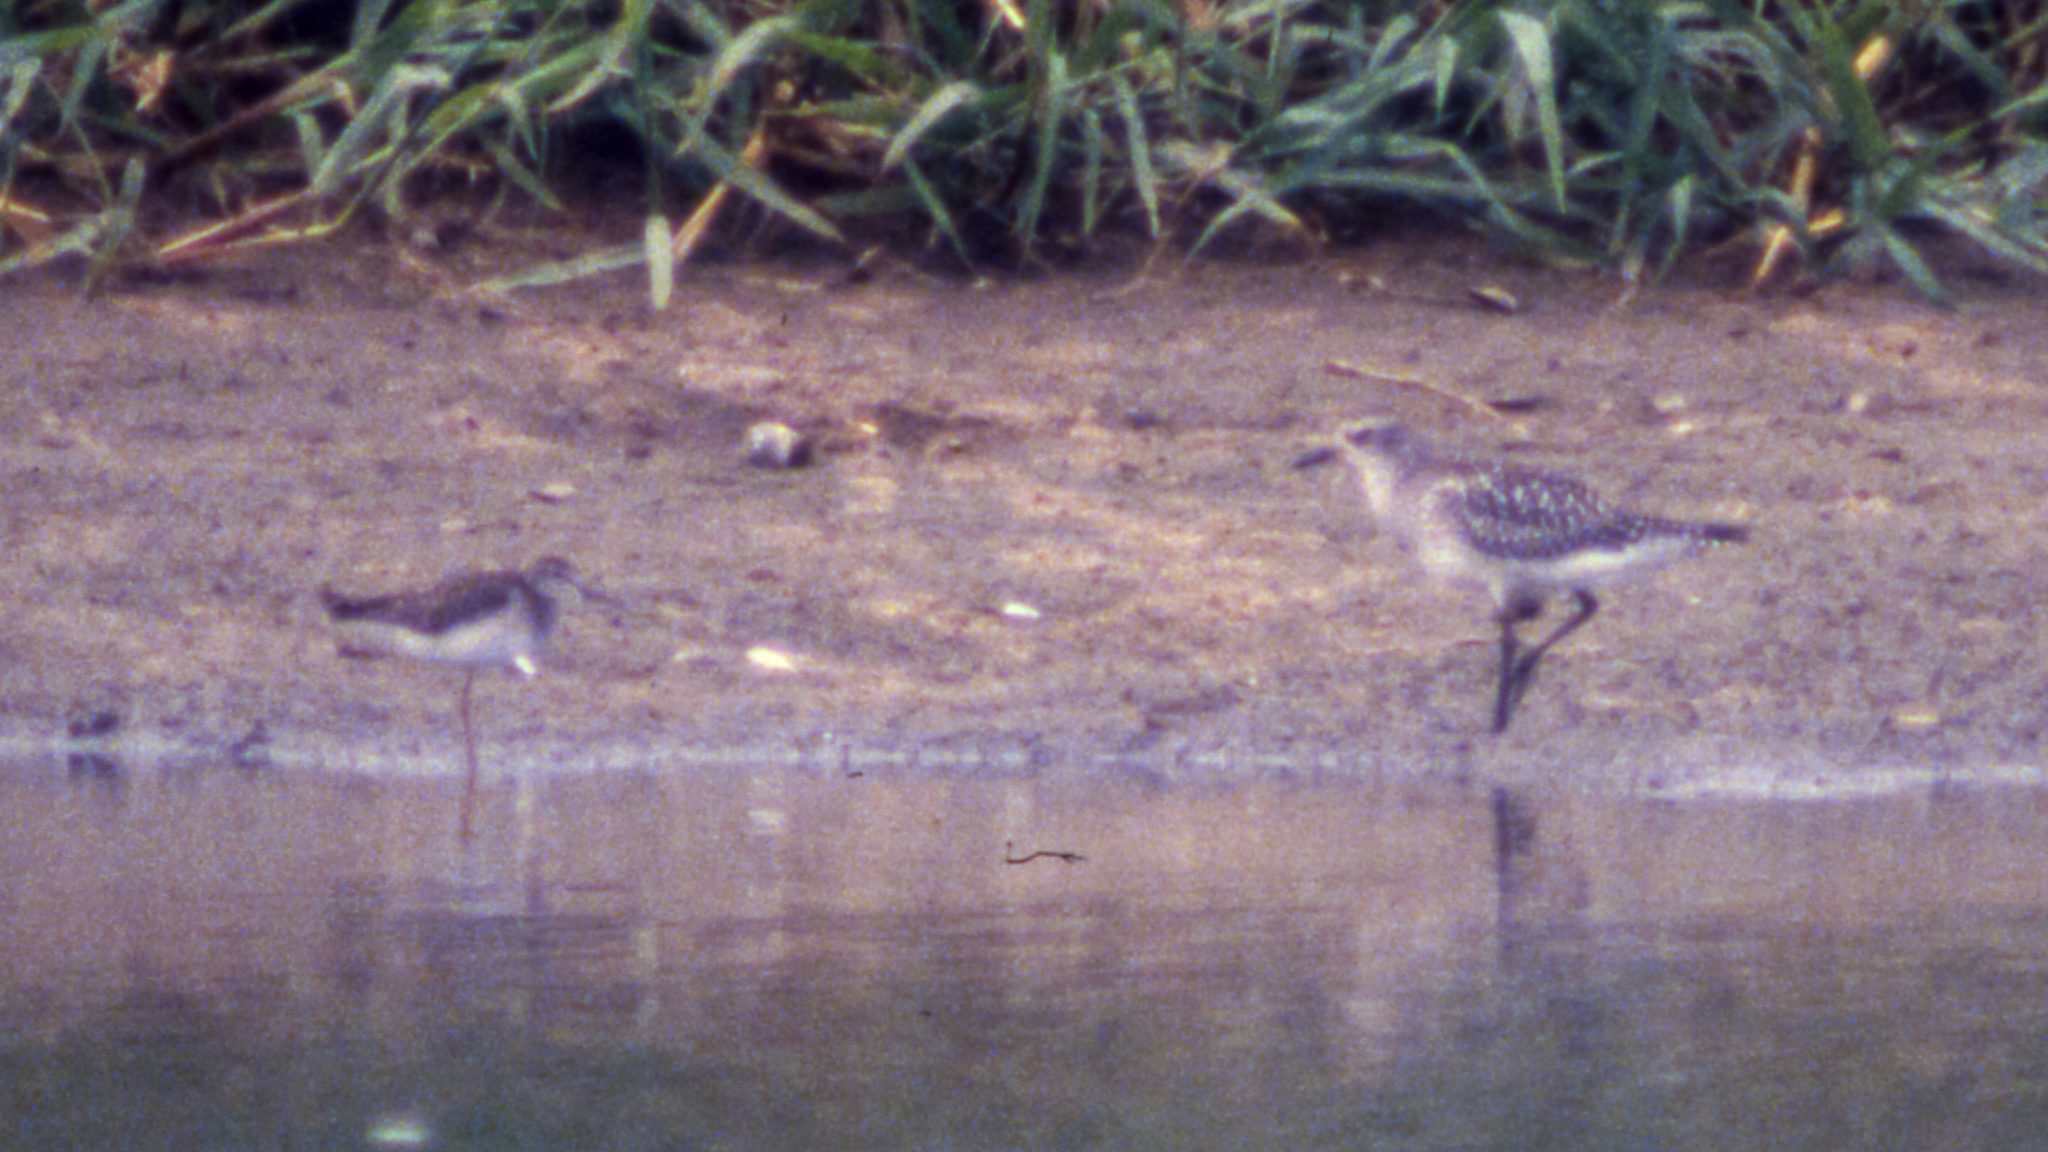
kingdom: Animalia
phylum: Chordata
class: Aves
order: Charadriiformes
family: Scolopacidae
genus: Tringa
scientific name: Tringa glareola
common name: Wood sandpiper
